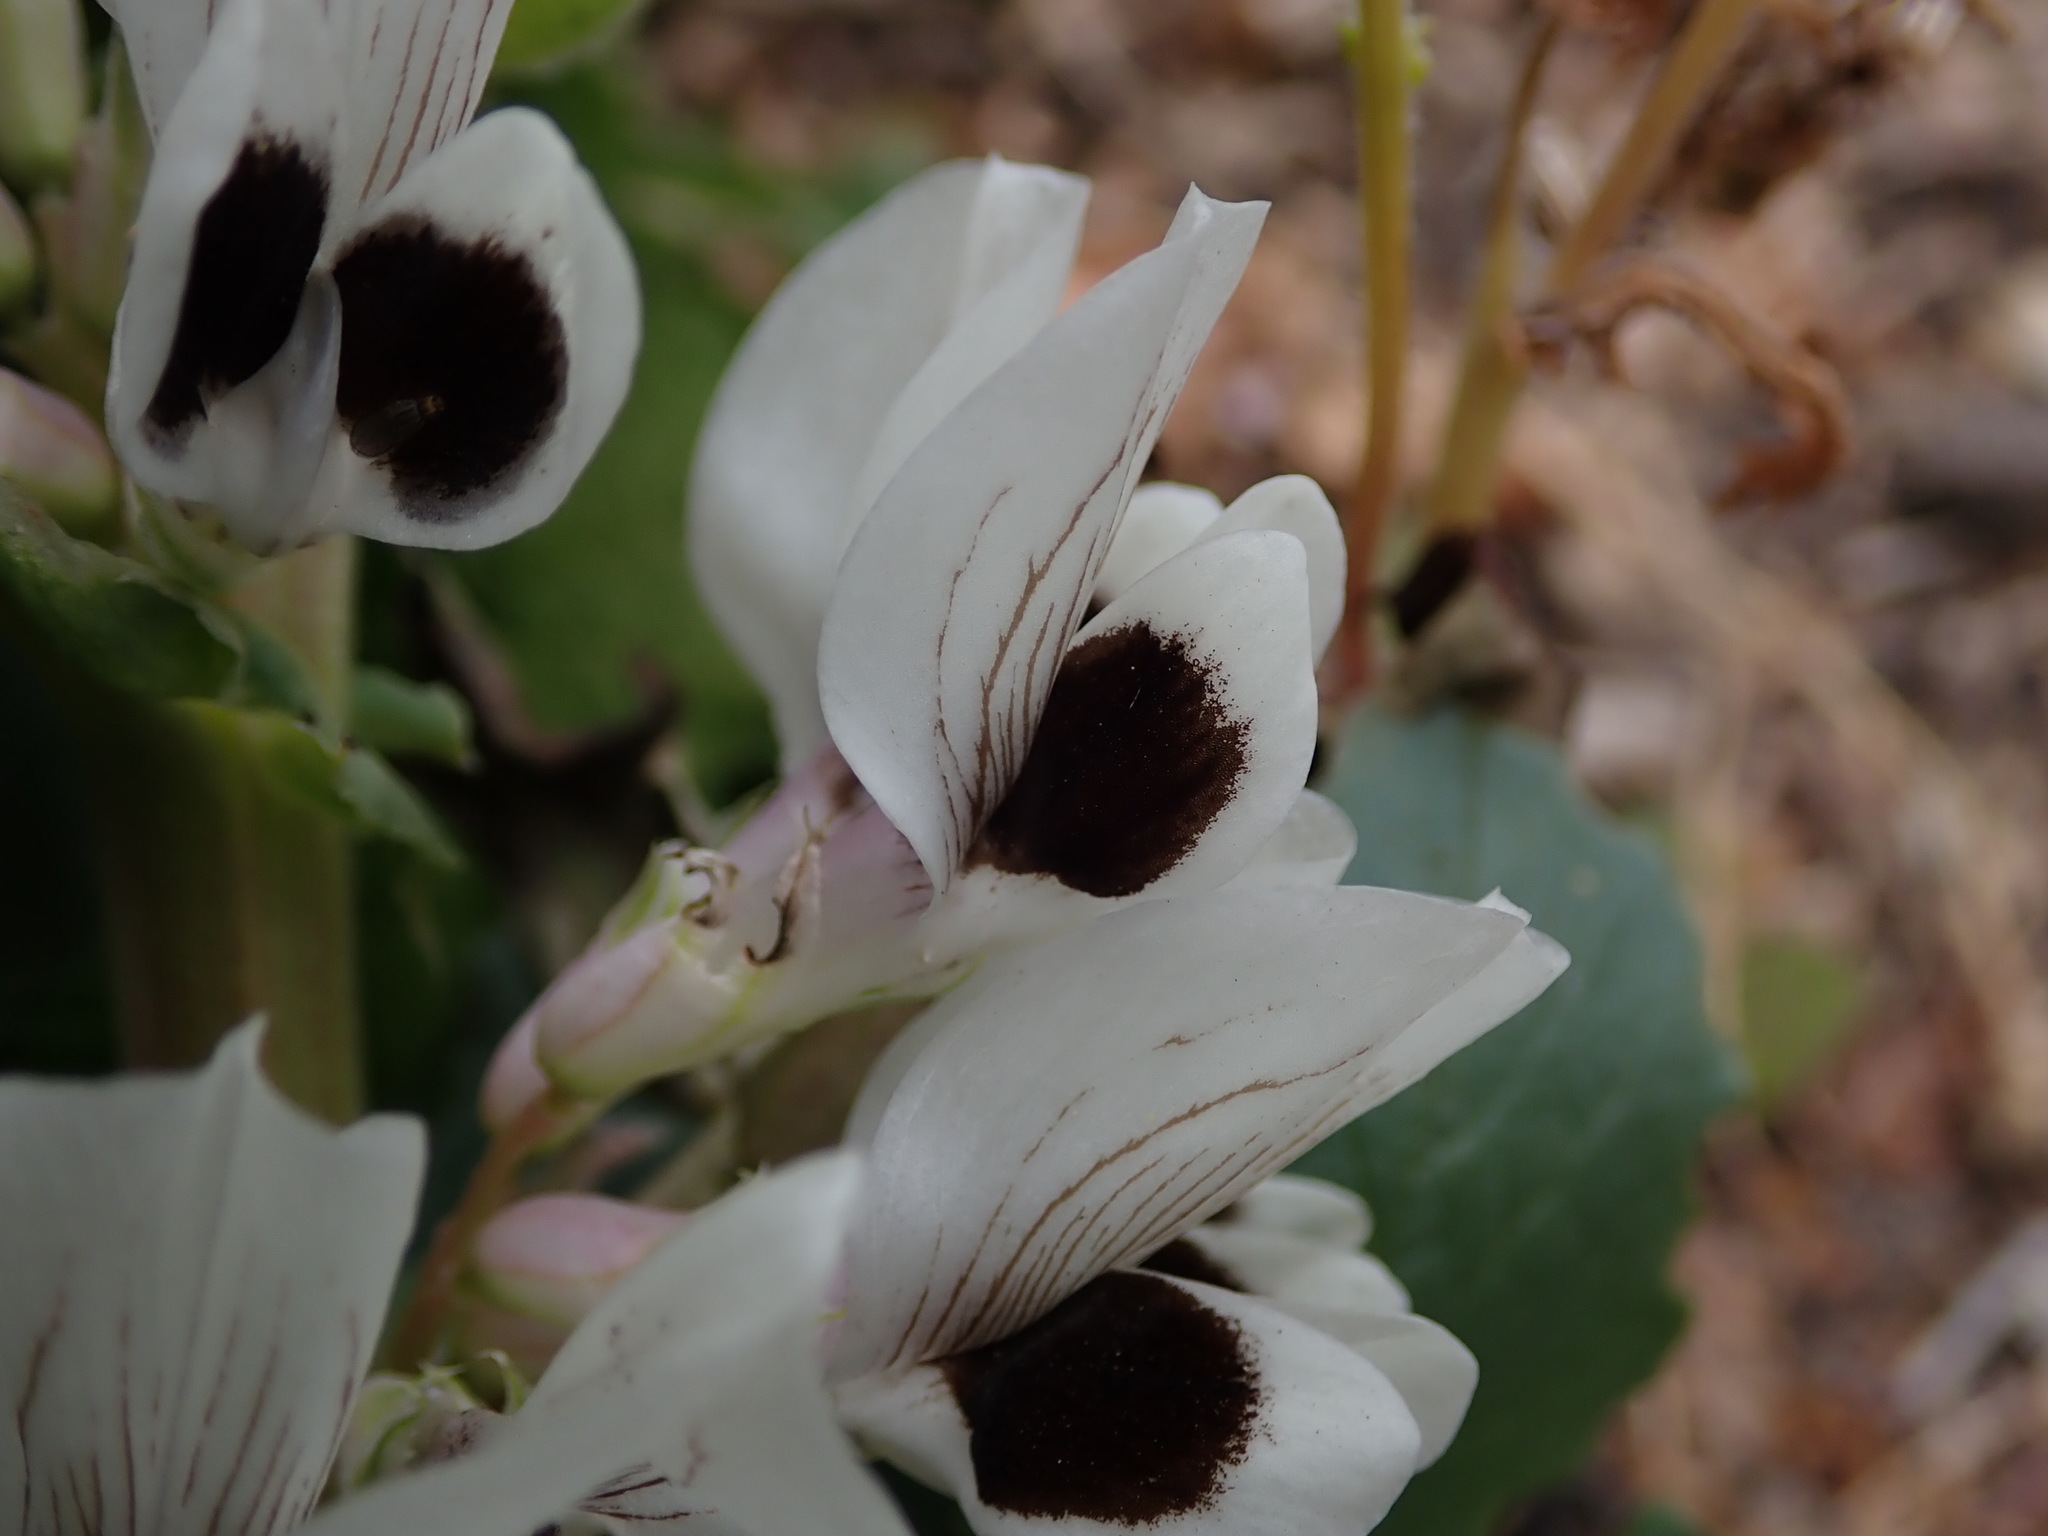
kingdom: Plantae
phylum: Tracheophyta
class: Magnoliopsida
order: Fabales
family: Fabaceae
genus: Vicia
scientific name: Vicia faba
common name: Broad bean
